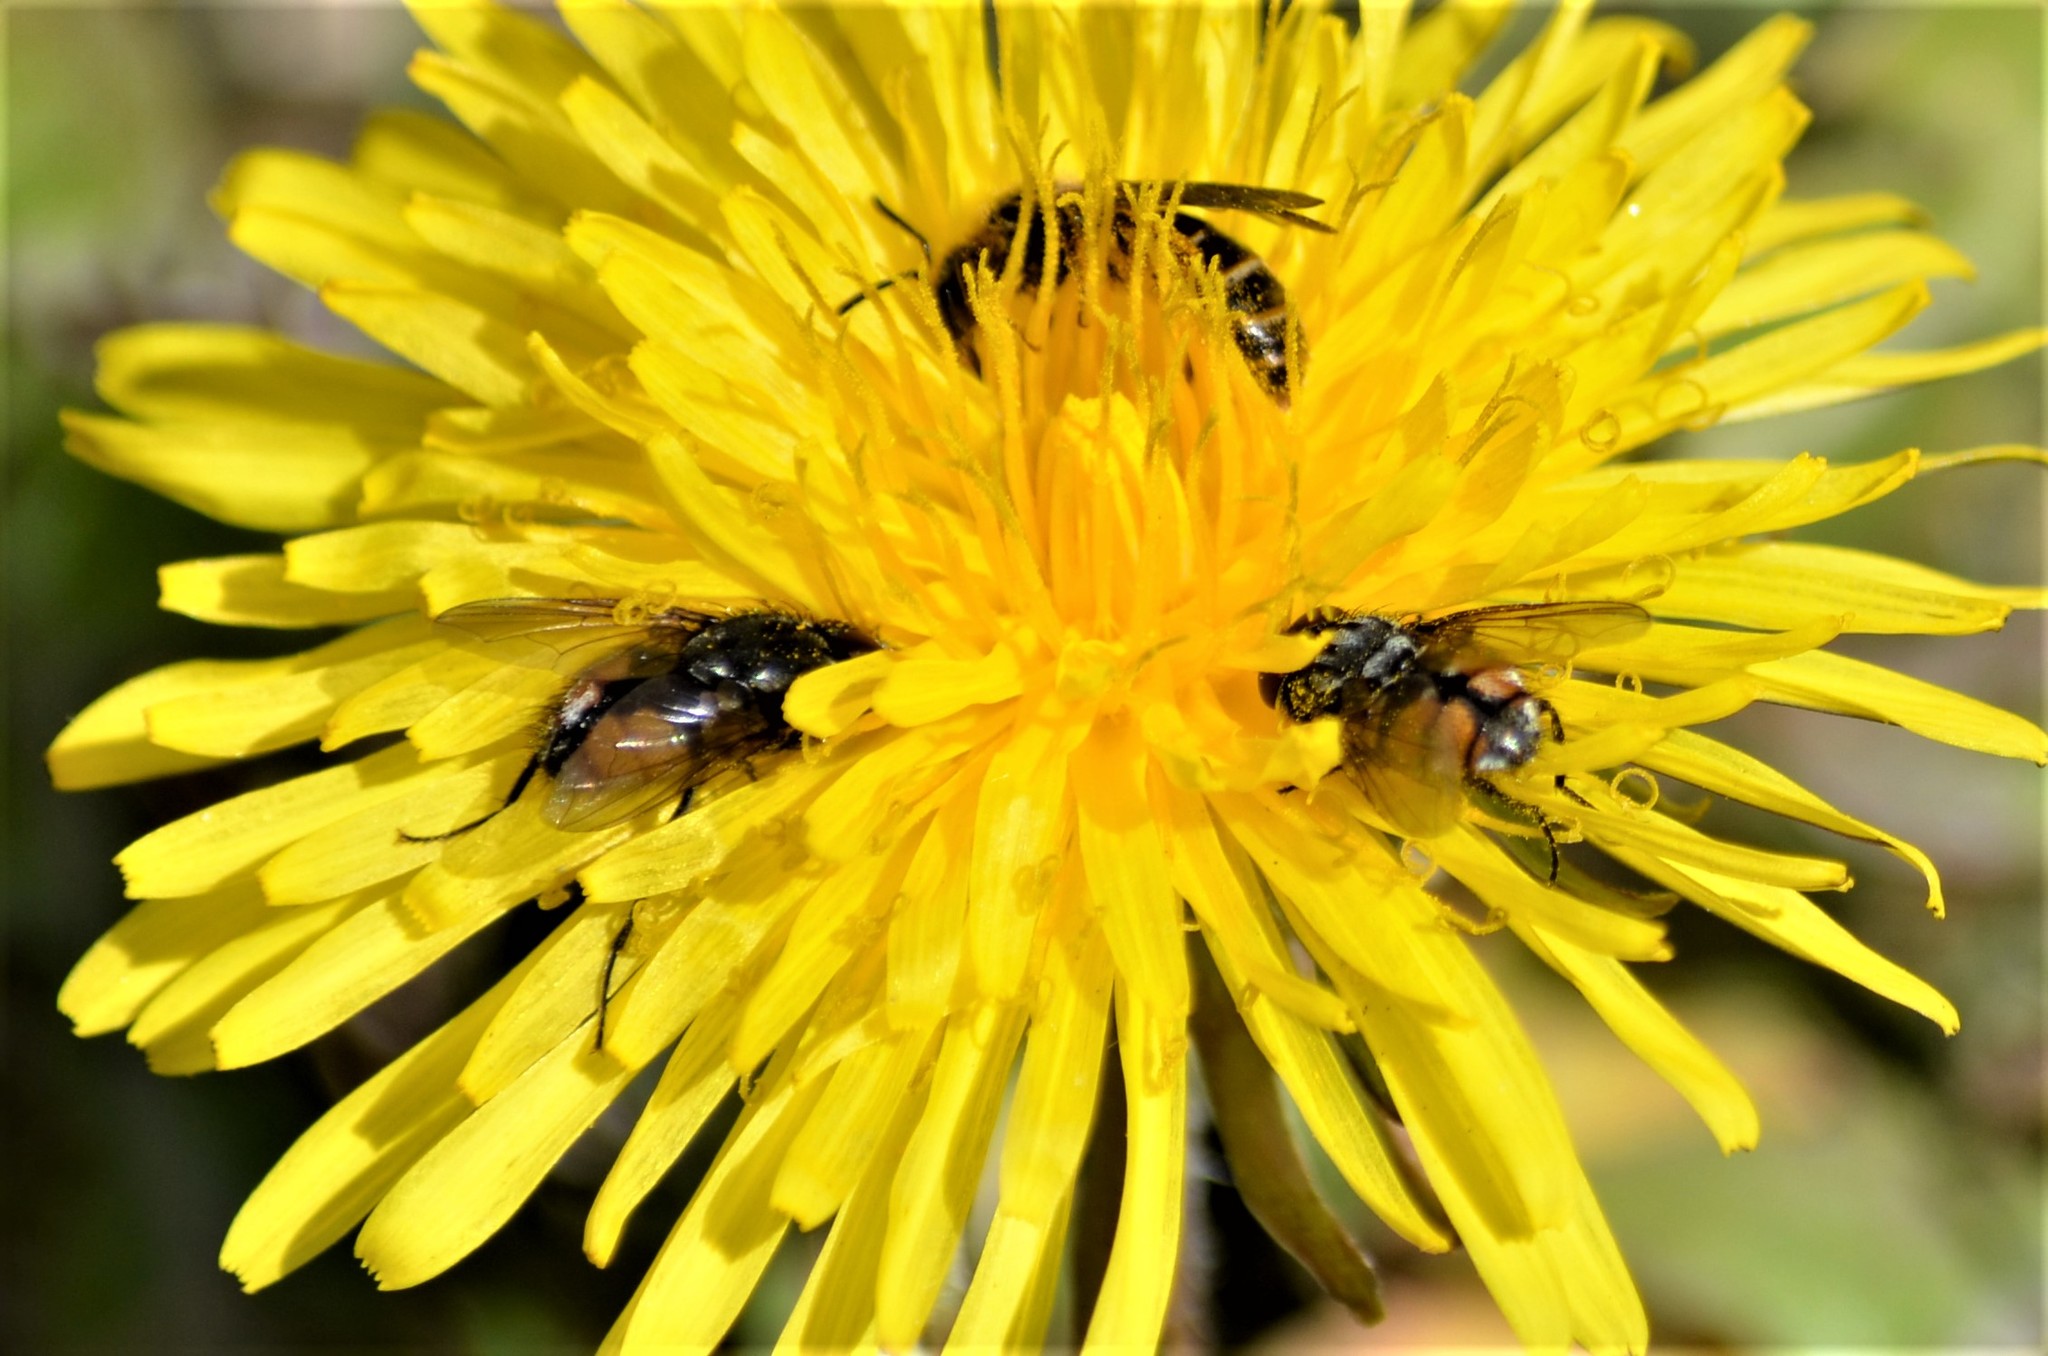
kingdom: Animalia
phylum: Arthropoda
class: Insecta
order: Diptera
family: Muscidae
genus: Musca
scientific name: Musca autumnalis
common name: Face fly
